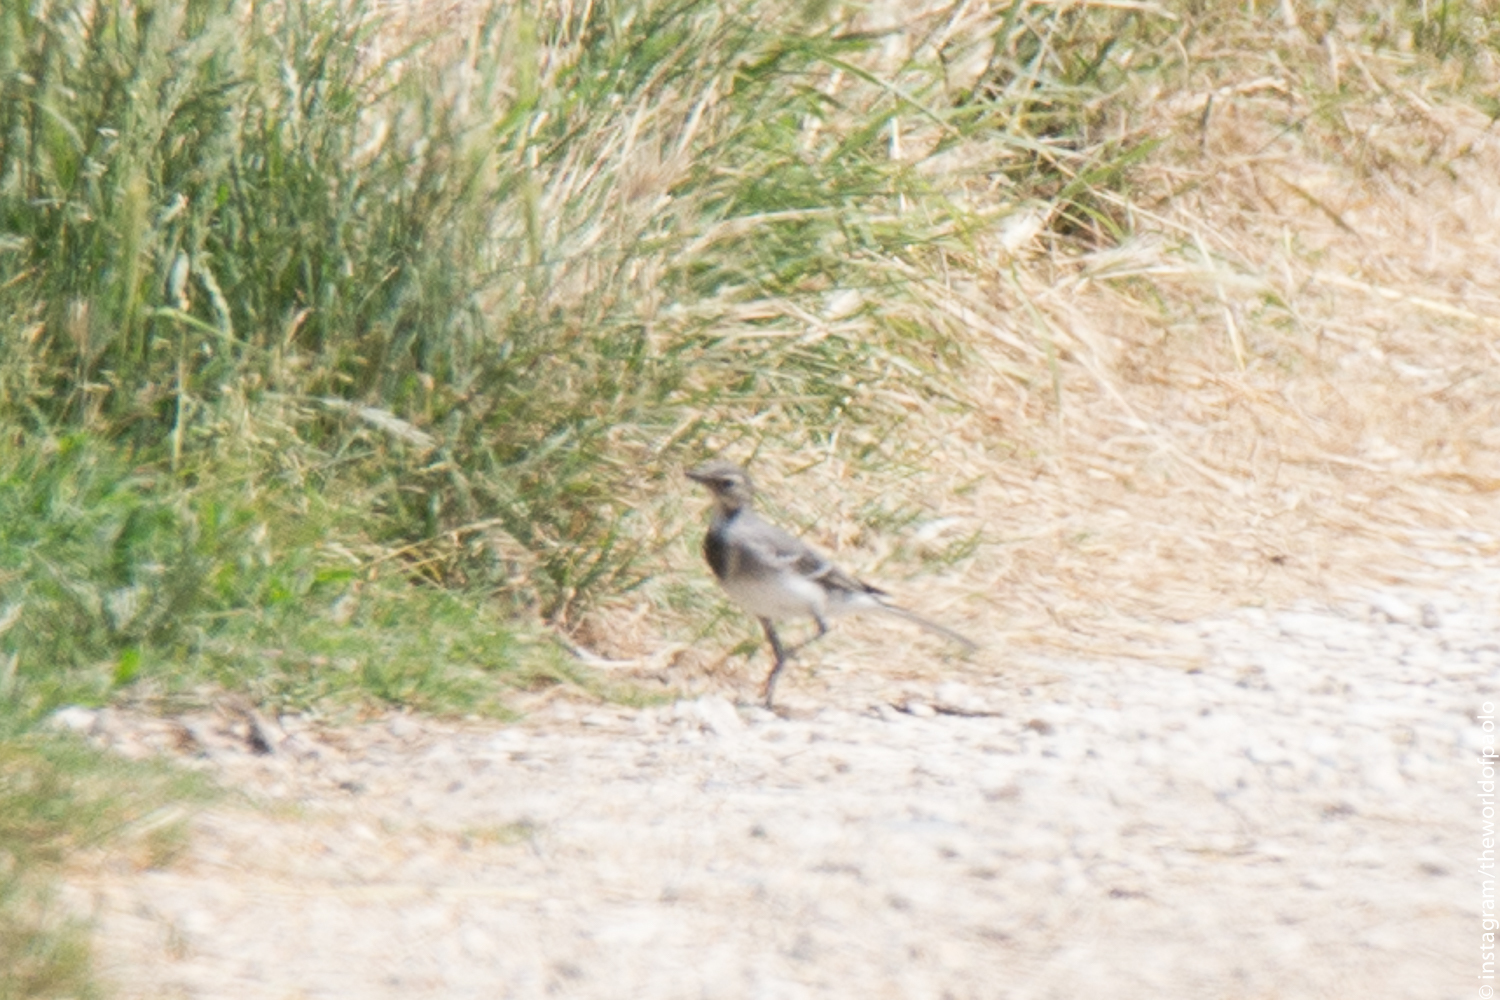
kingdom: Animalia
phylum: Chordata
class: Aves
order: Passeriformes
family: Motacillidae
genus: Motacilla
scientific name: Motacilla alba
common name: White wagtail
